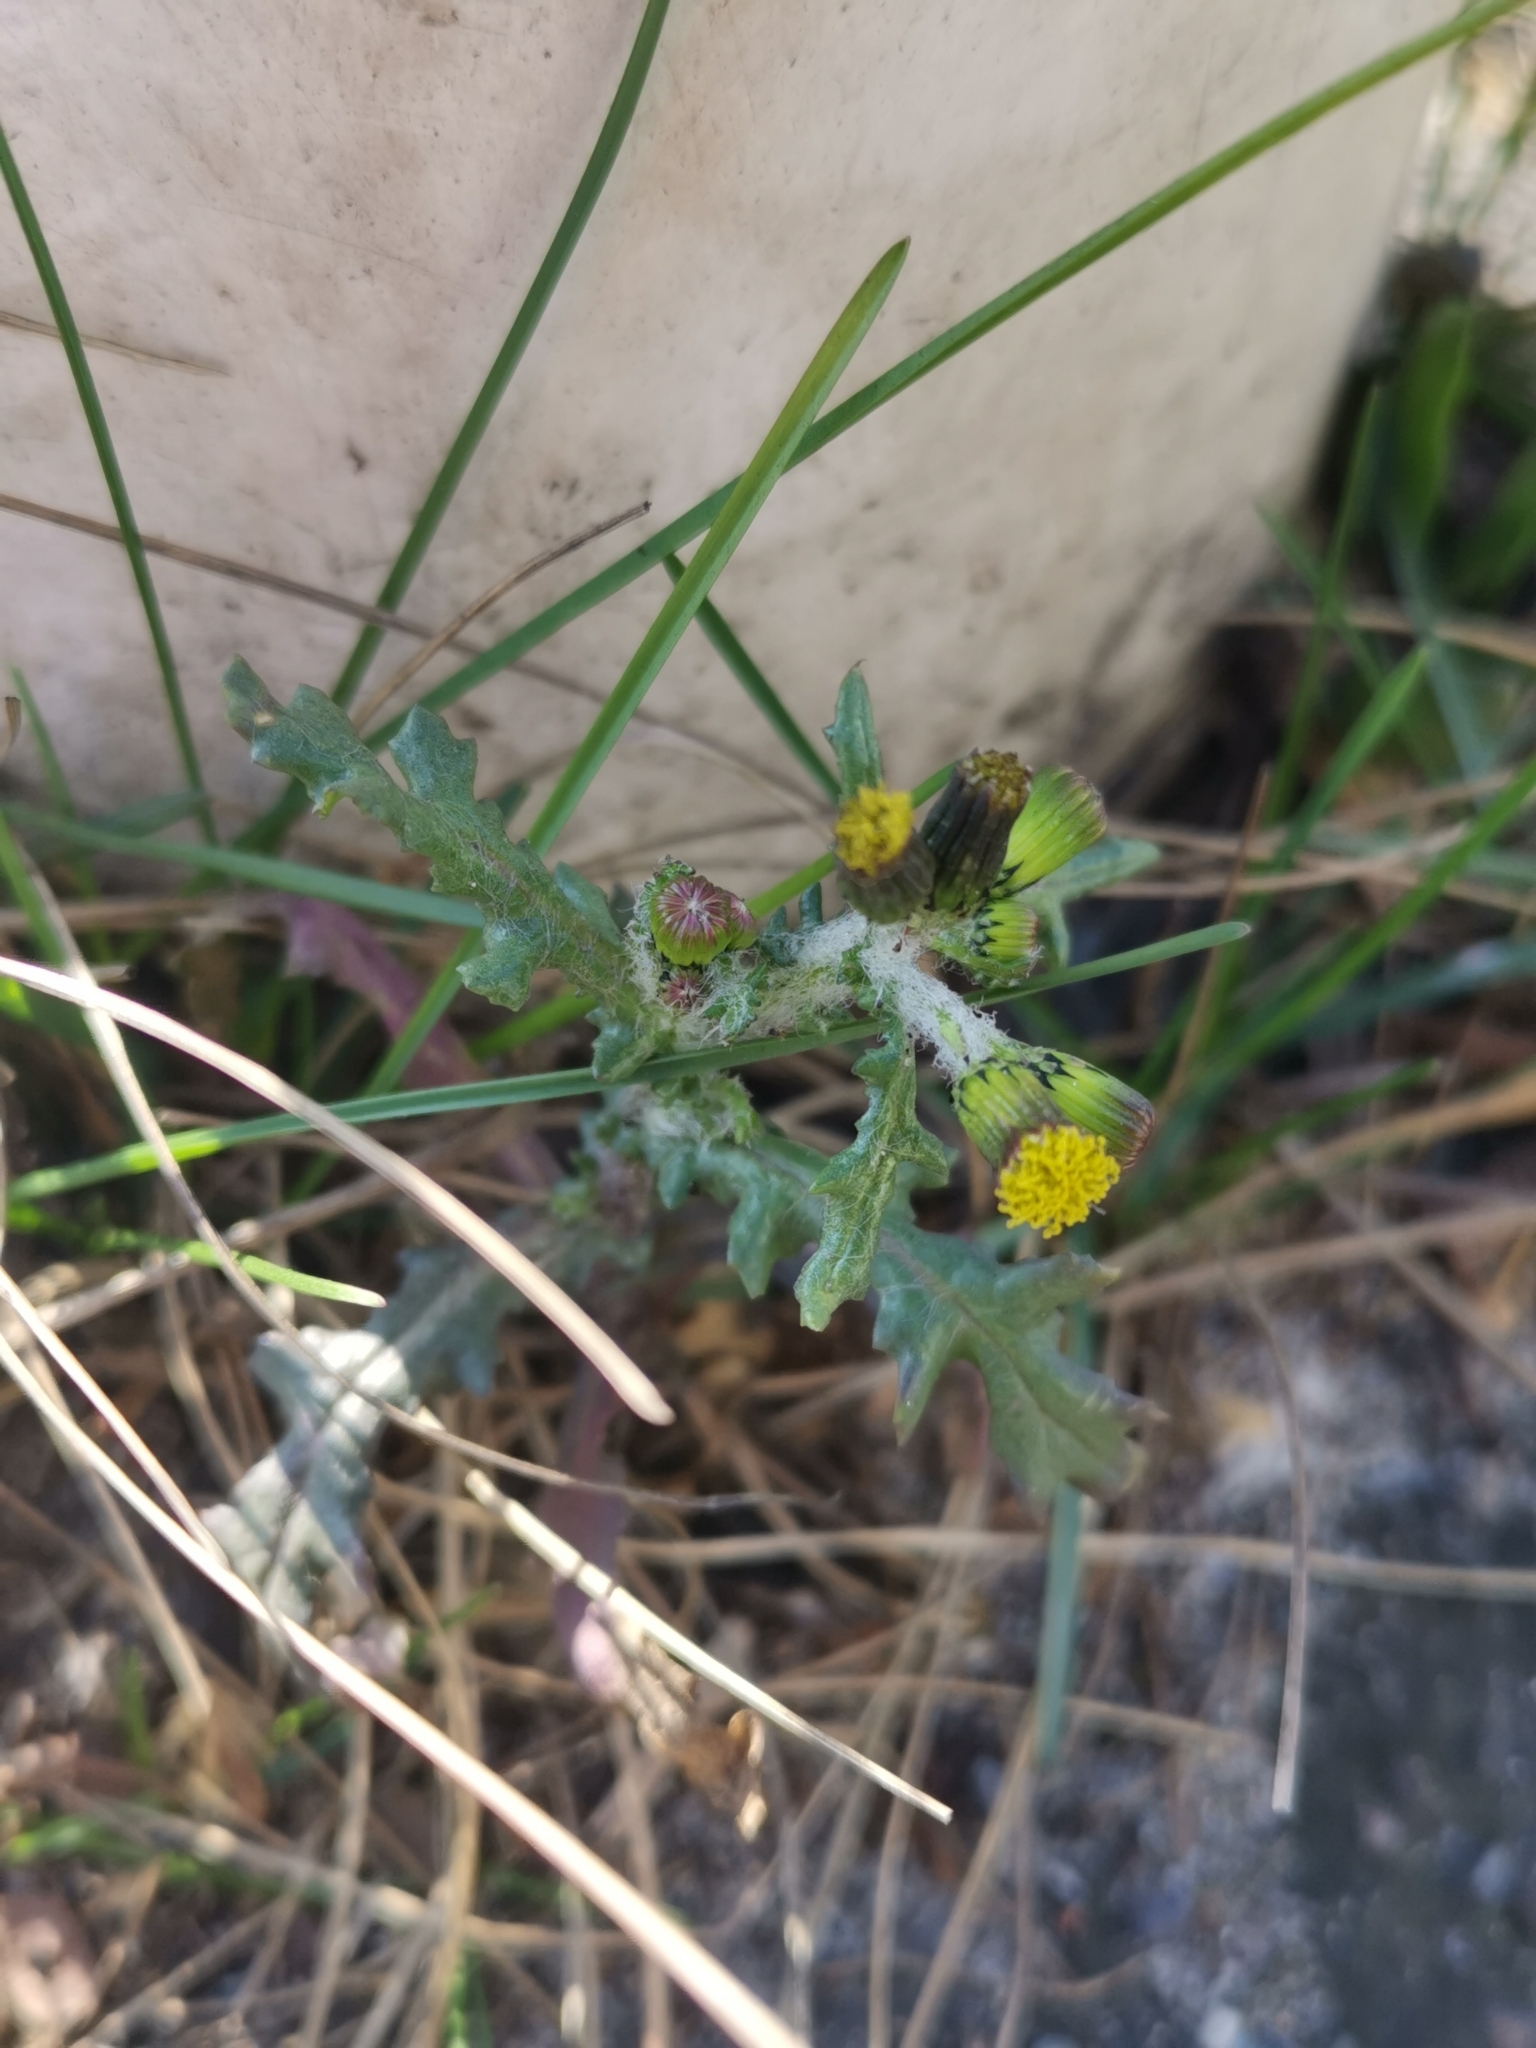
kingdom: Plantae
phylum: Tracheophyta
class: Magnoliopsida
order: Asterales
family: Asteraceae
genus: Senecio
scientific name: Senecio vulgaris
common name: Old-man-in-the-spring
